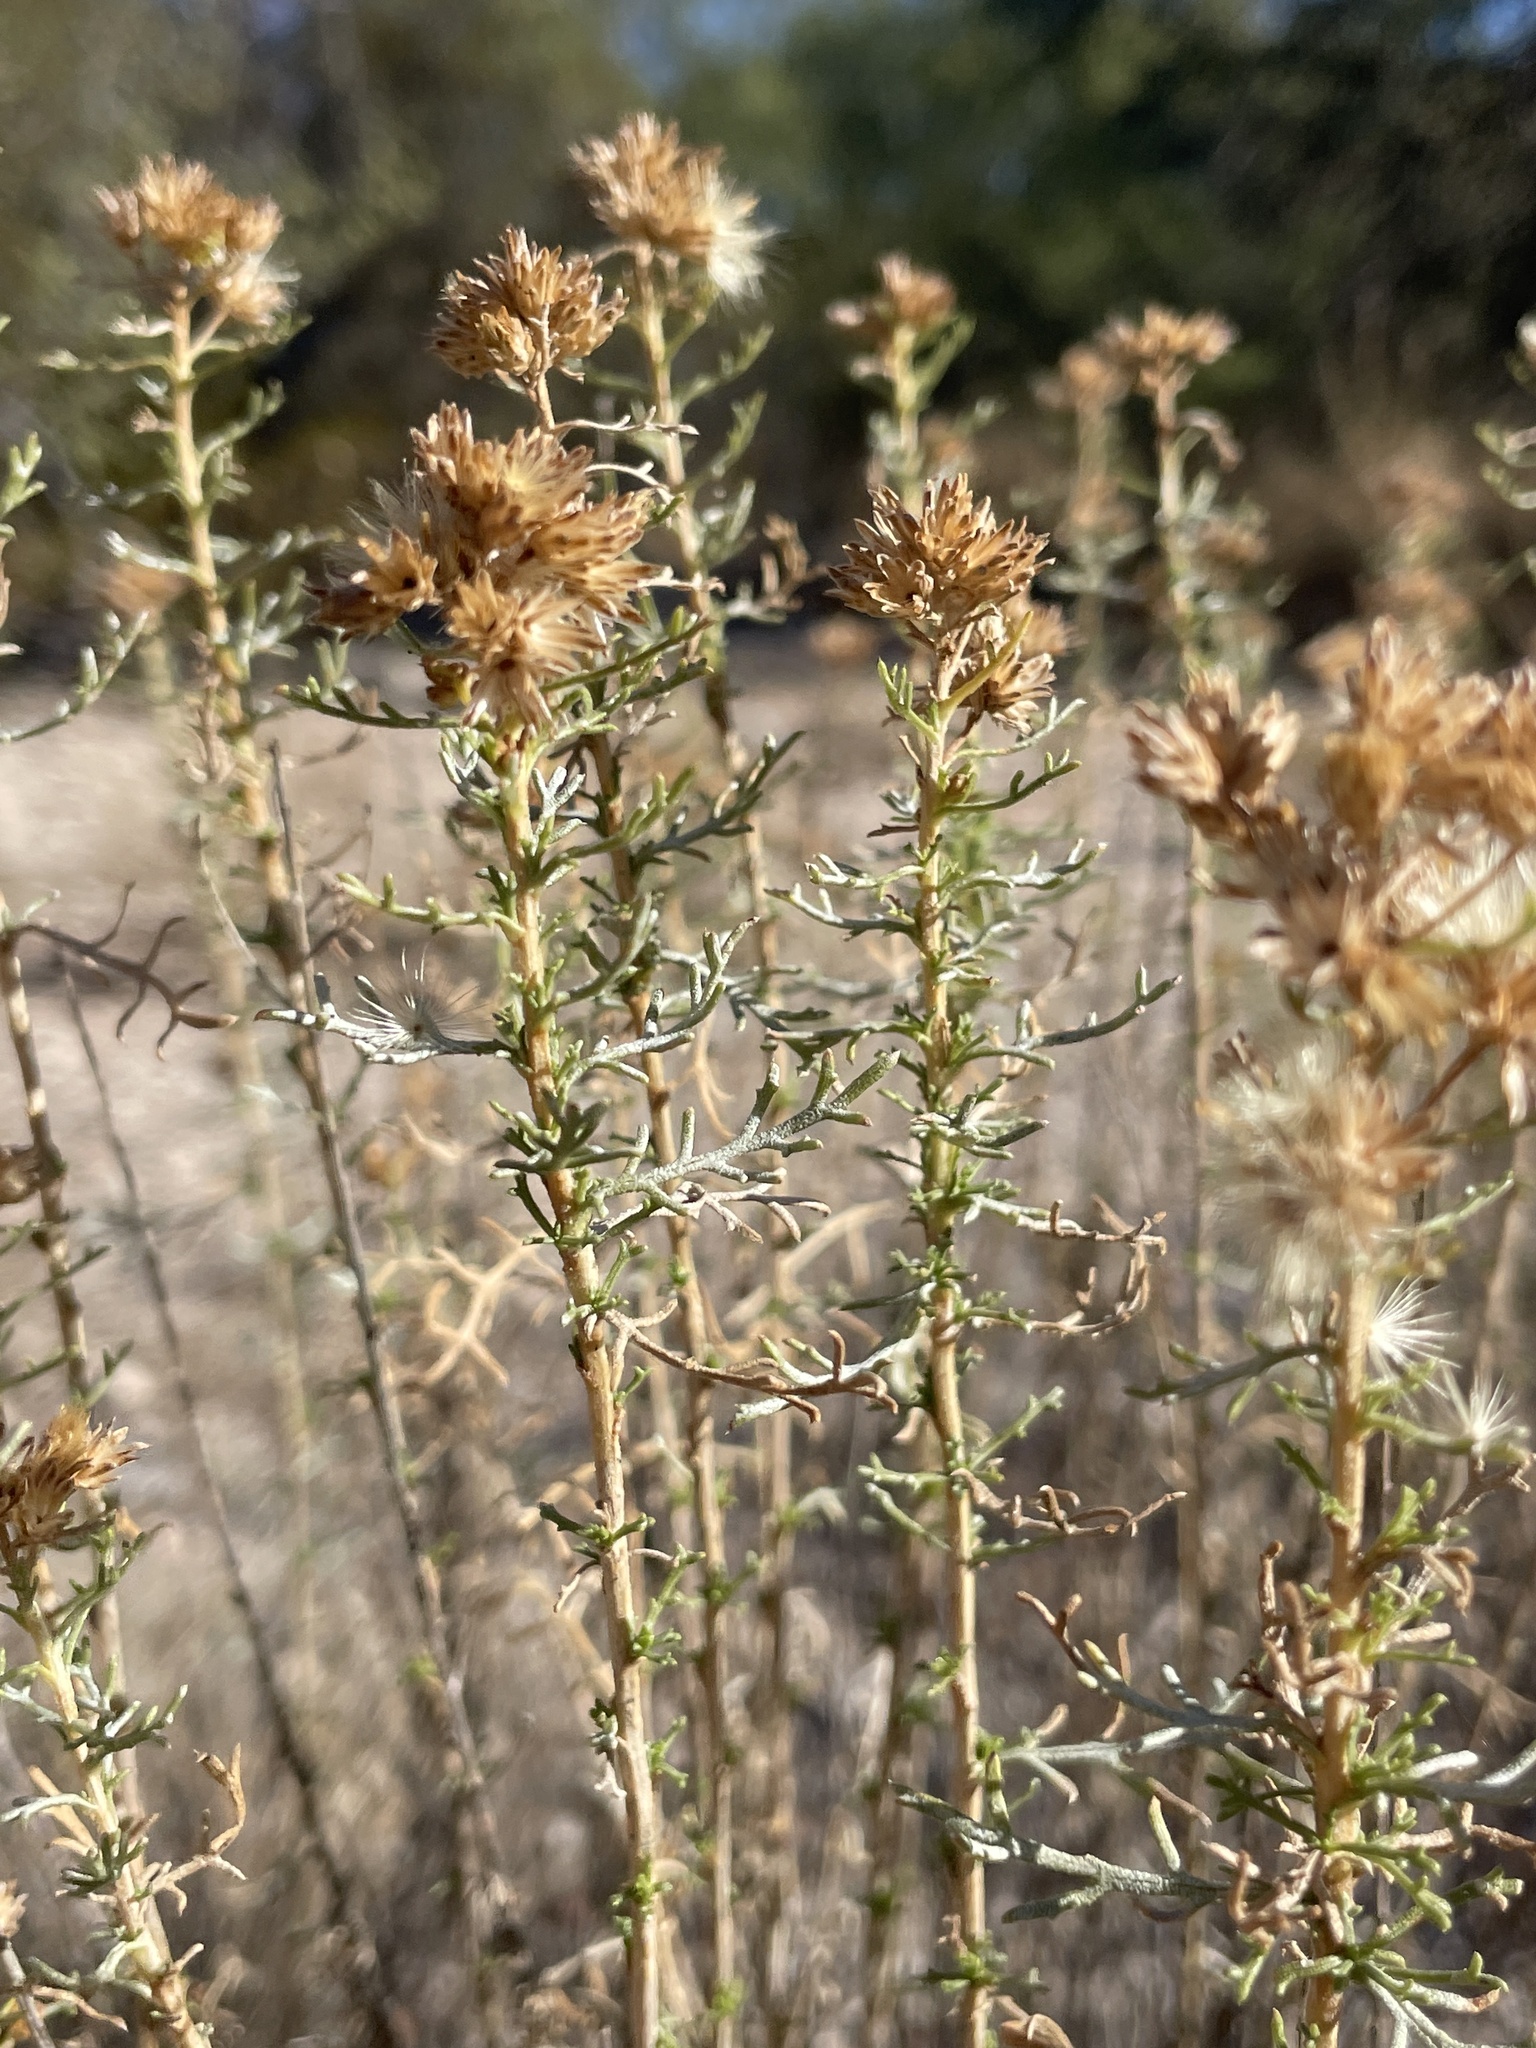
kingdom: Plantae
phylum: Tracheophyta
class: Magnoliopsida
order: Asterales
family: Asteraceae
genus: Isocoma
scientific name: Isocoma tenuisecta
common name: Burroweed
